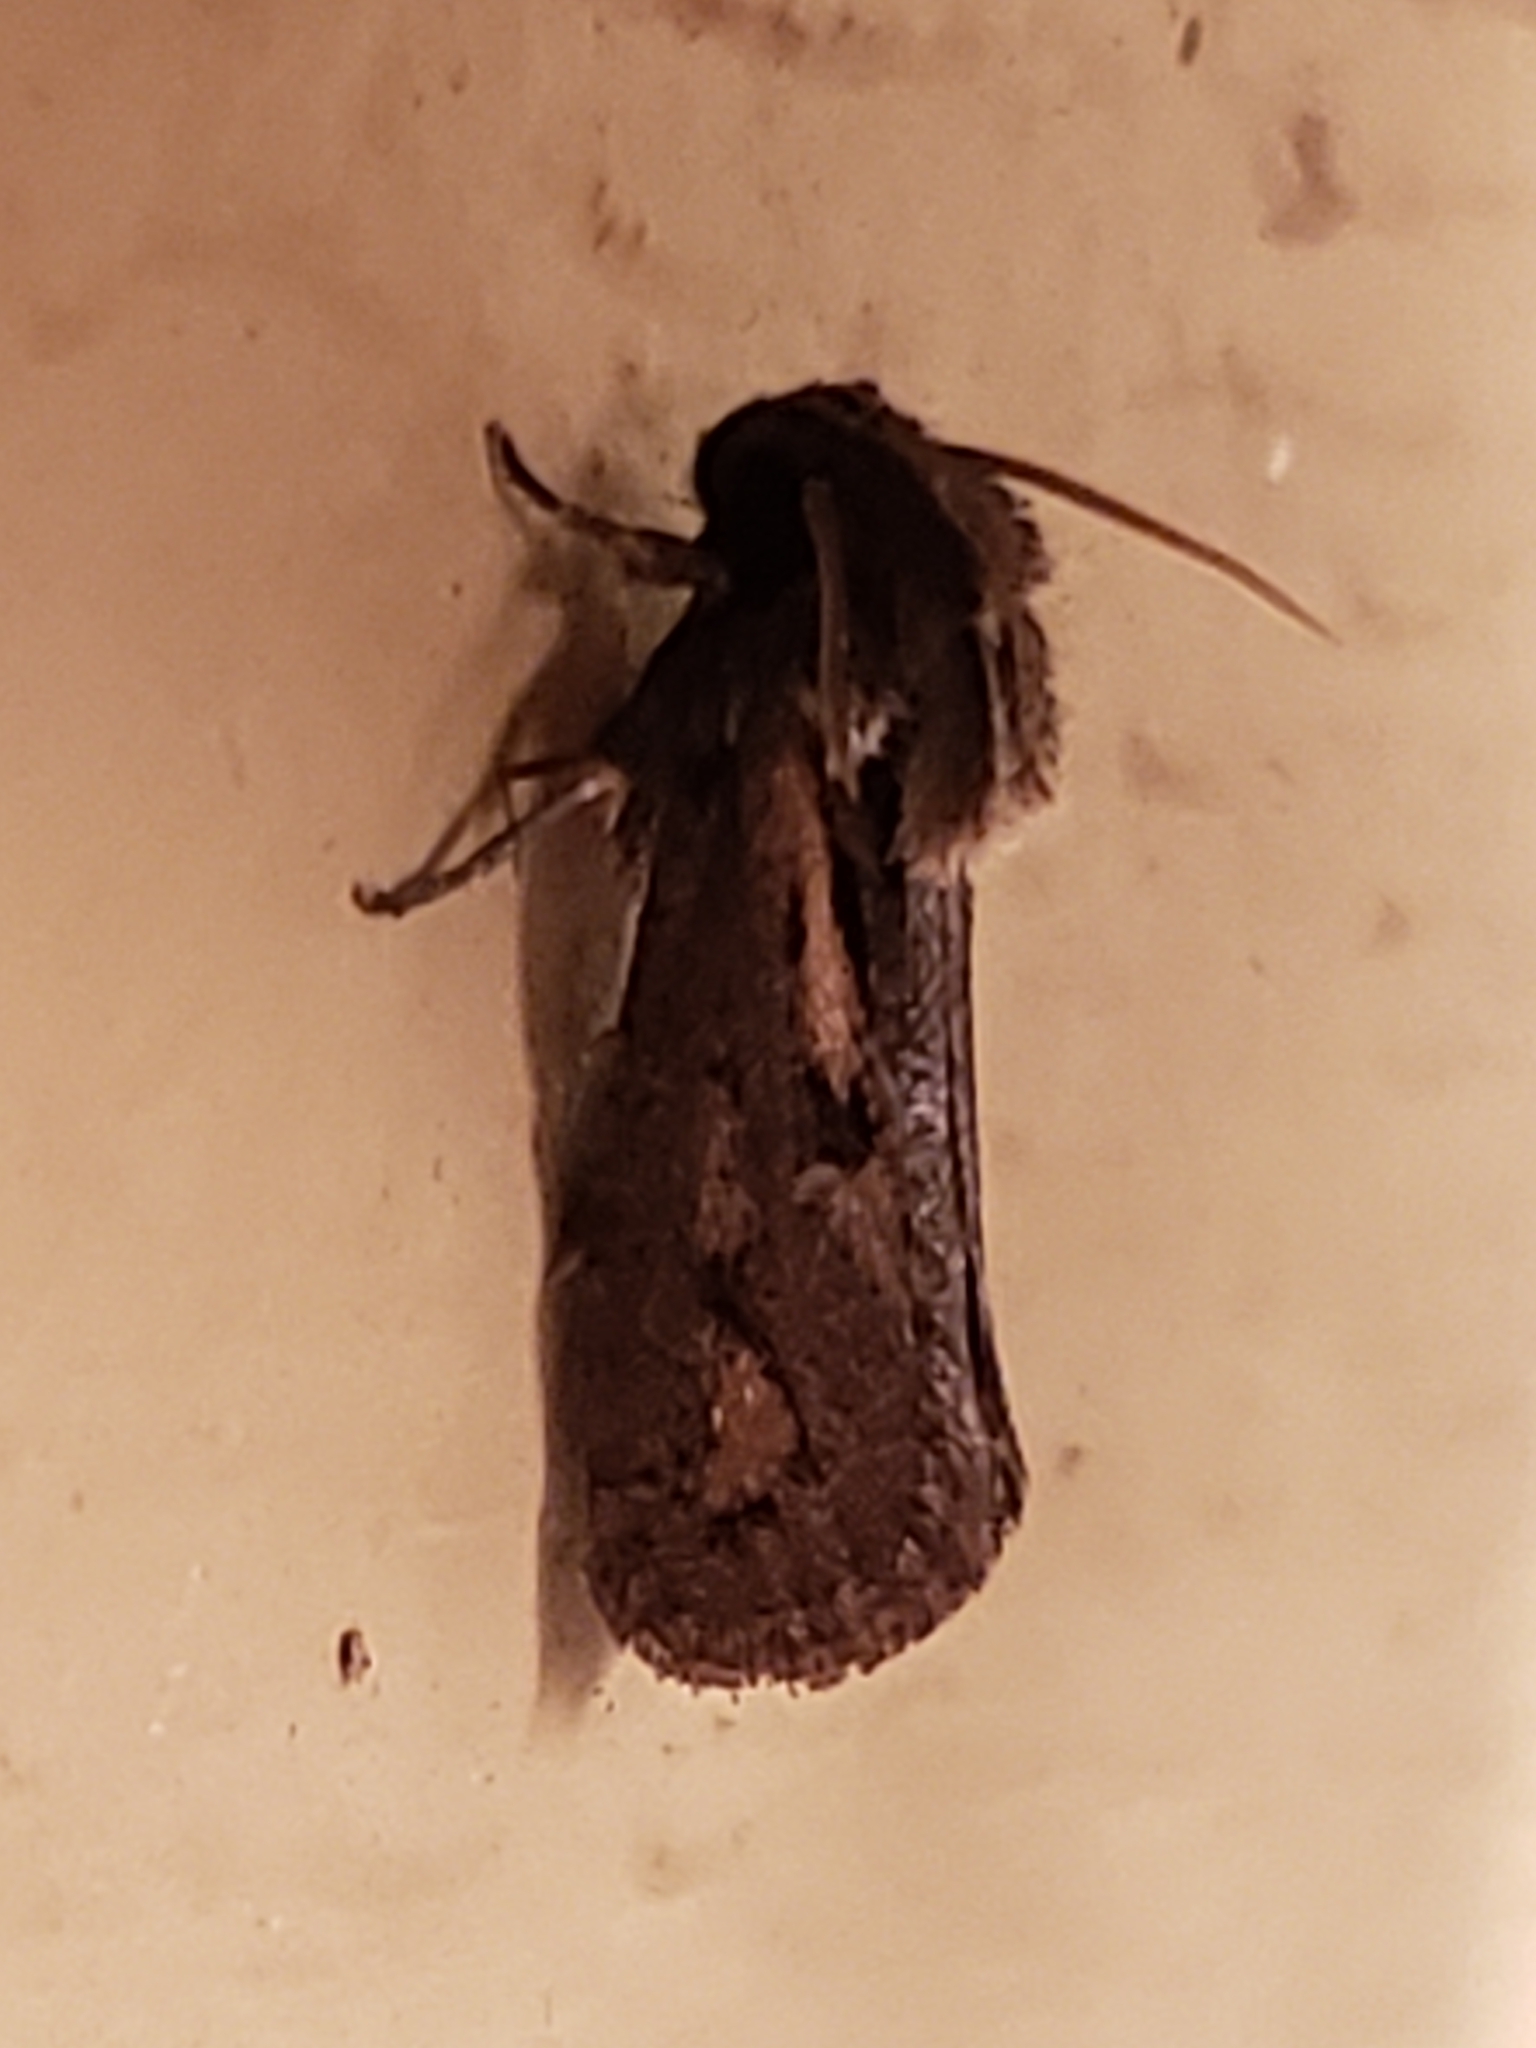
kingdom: Animalia
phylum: Arthropoda
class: Insecta
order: Lepidoptera
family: Tineidae
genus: Acrolophus
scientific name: Acrolophus popeanella
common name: Clemens' grass tubeworm moth
